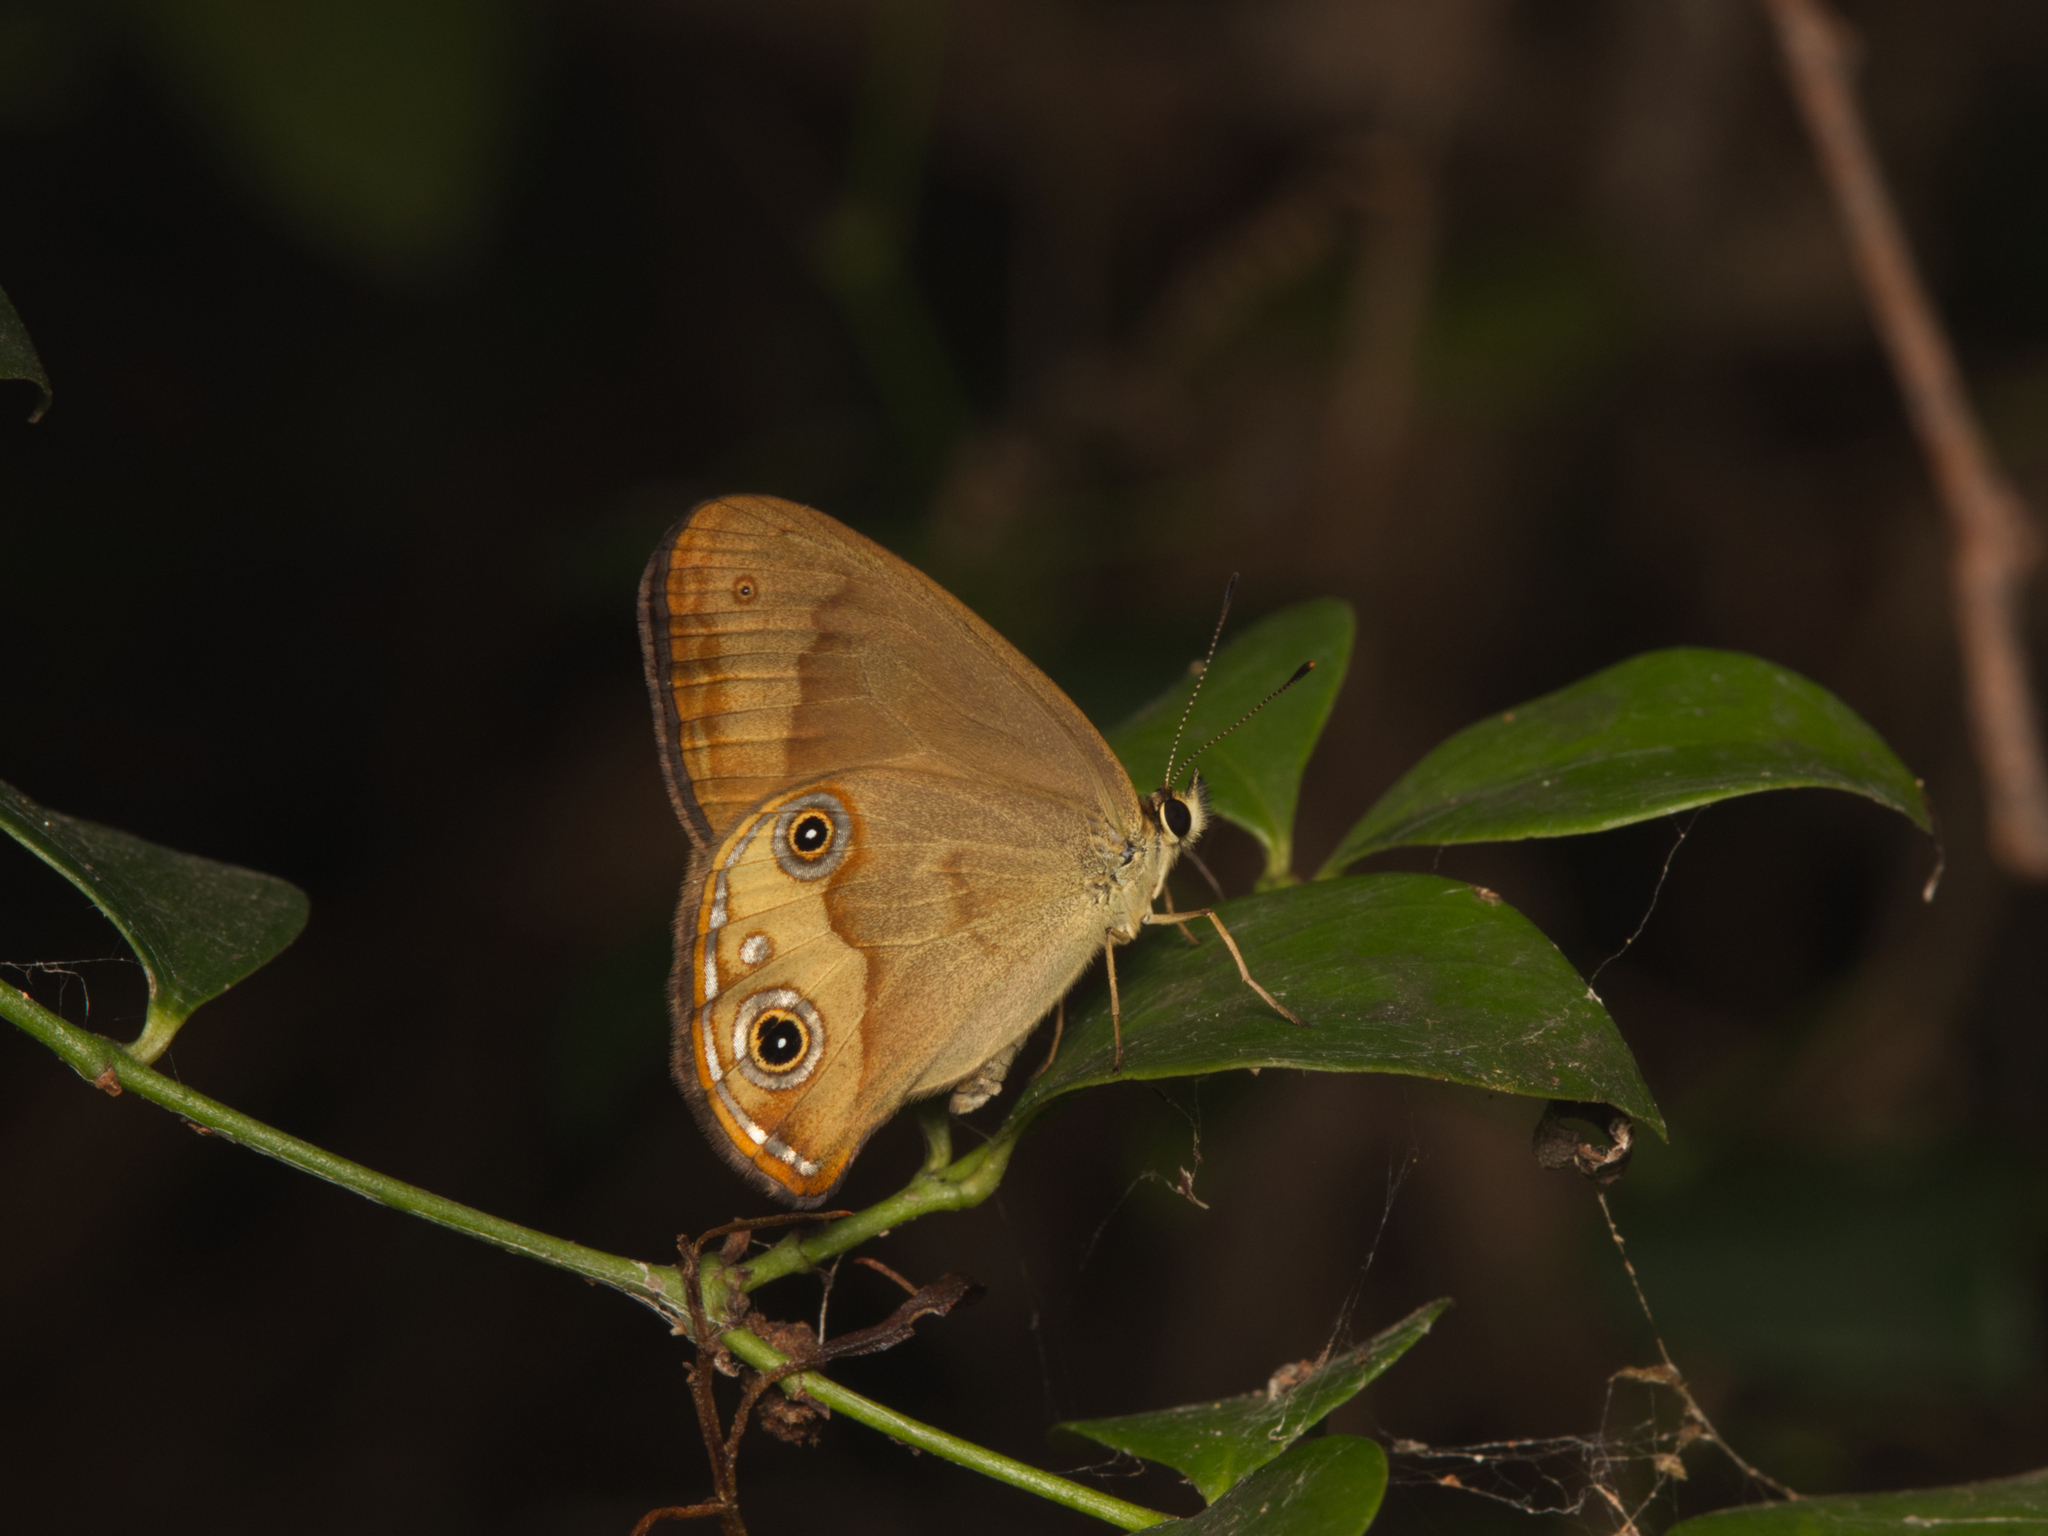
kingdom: Animalia
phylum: Arthropoda
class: Insecta
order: Lepidoptera
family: Nymphalidae
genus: Hypocysta
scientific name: Hypocysta metirius
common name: Brown ringlet
